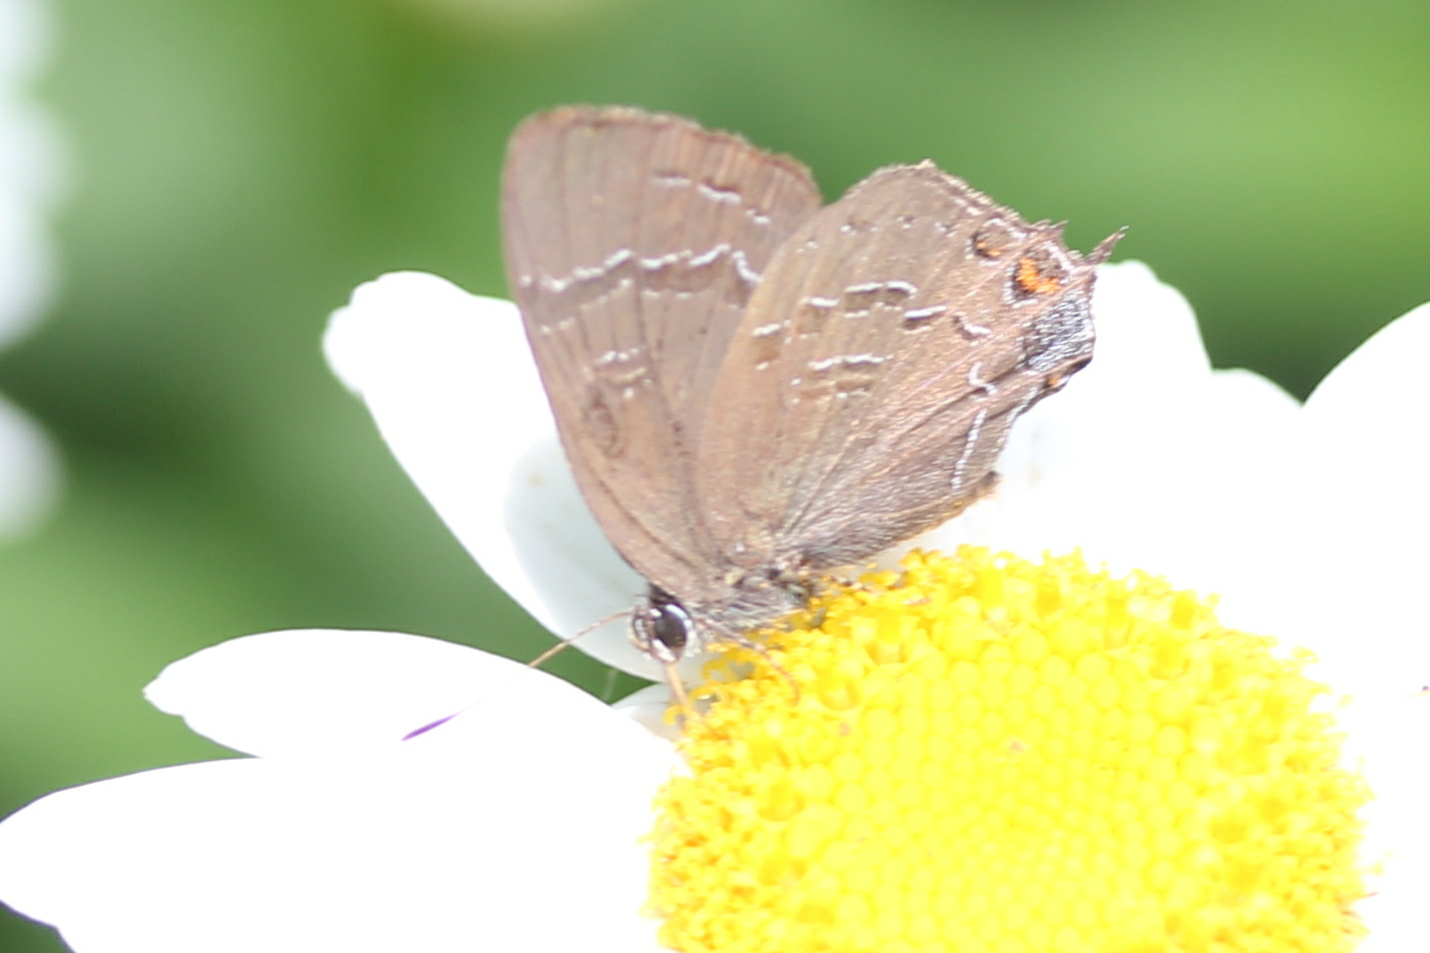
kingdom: Animalia
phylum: Arthropoda
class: Insecta
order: Lepidoptera
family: Lycaenidae
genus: Satyrium
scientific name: Satyrium calanus
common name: Banded hairstreak
